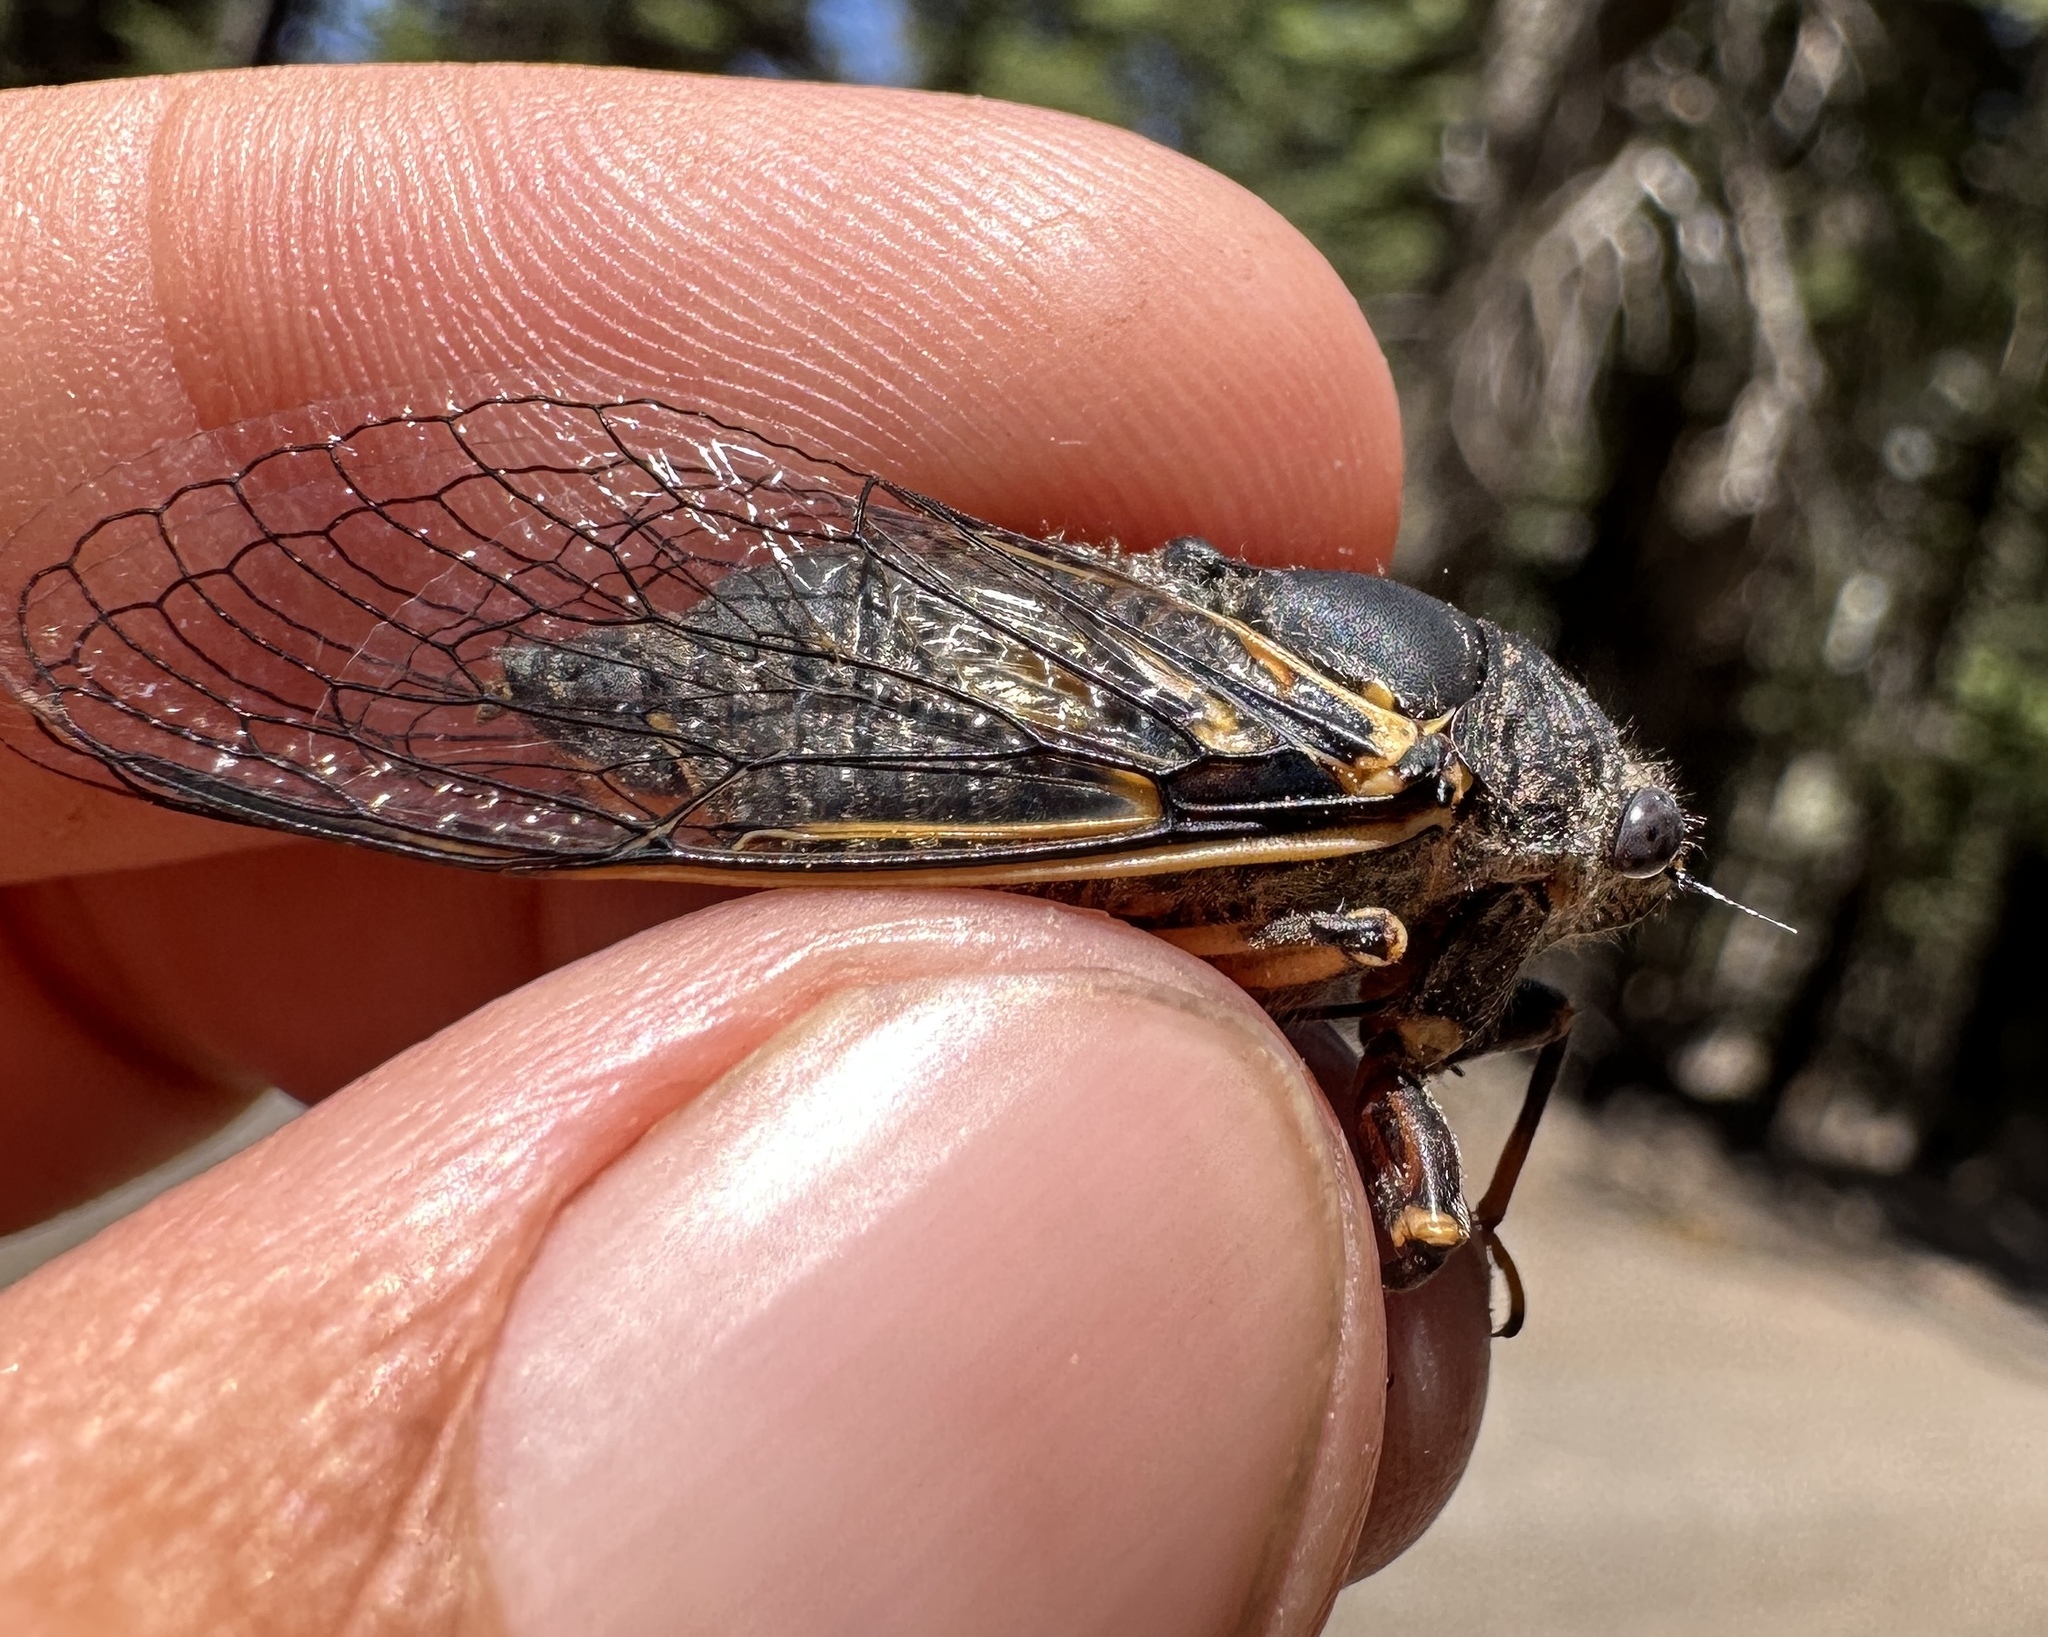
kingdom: Animalia
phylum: Arthropoda
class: Insecta
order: Hemiptera
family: Cicadidae
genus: Okanagana
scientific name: Okanagana nigrodorsata
